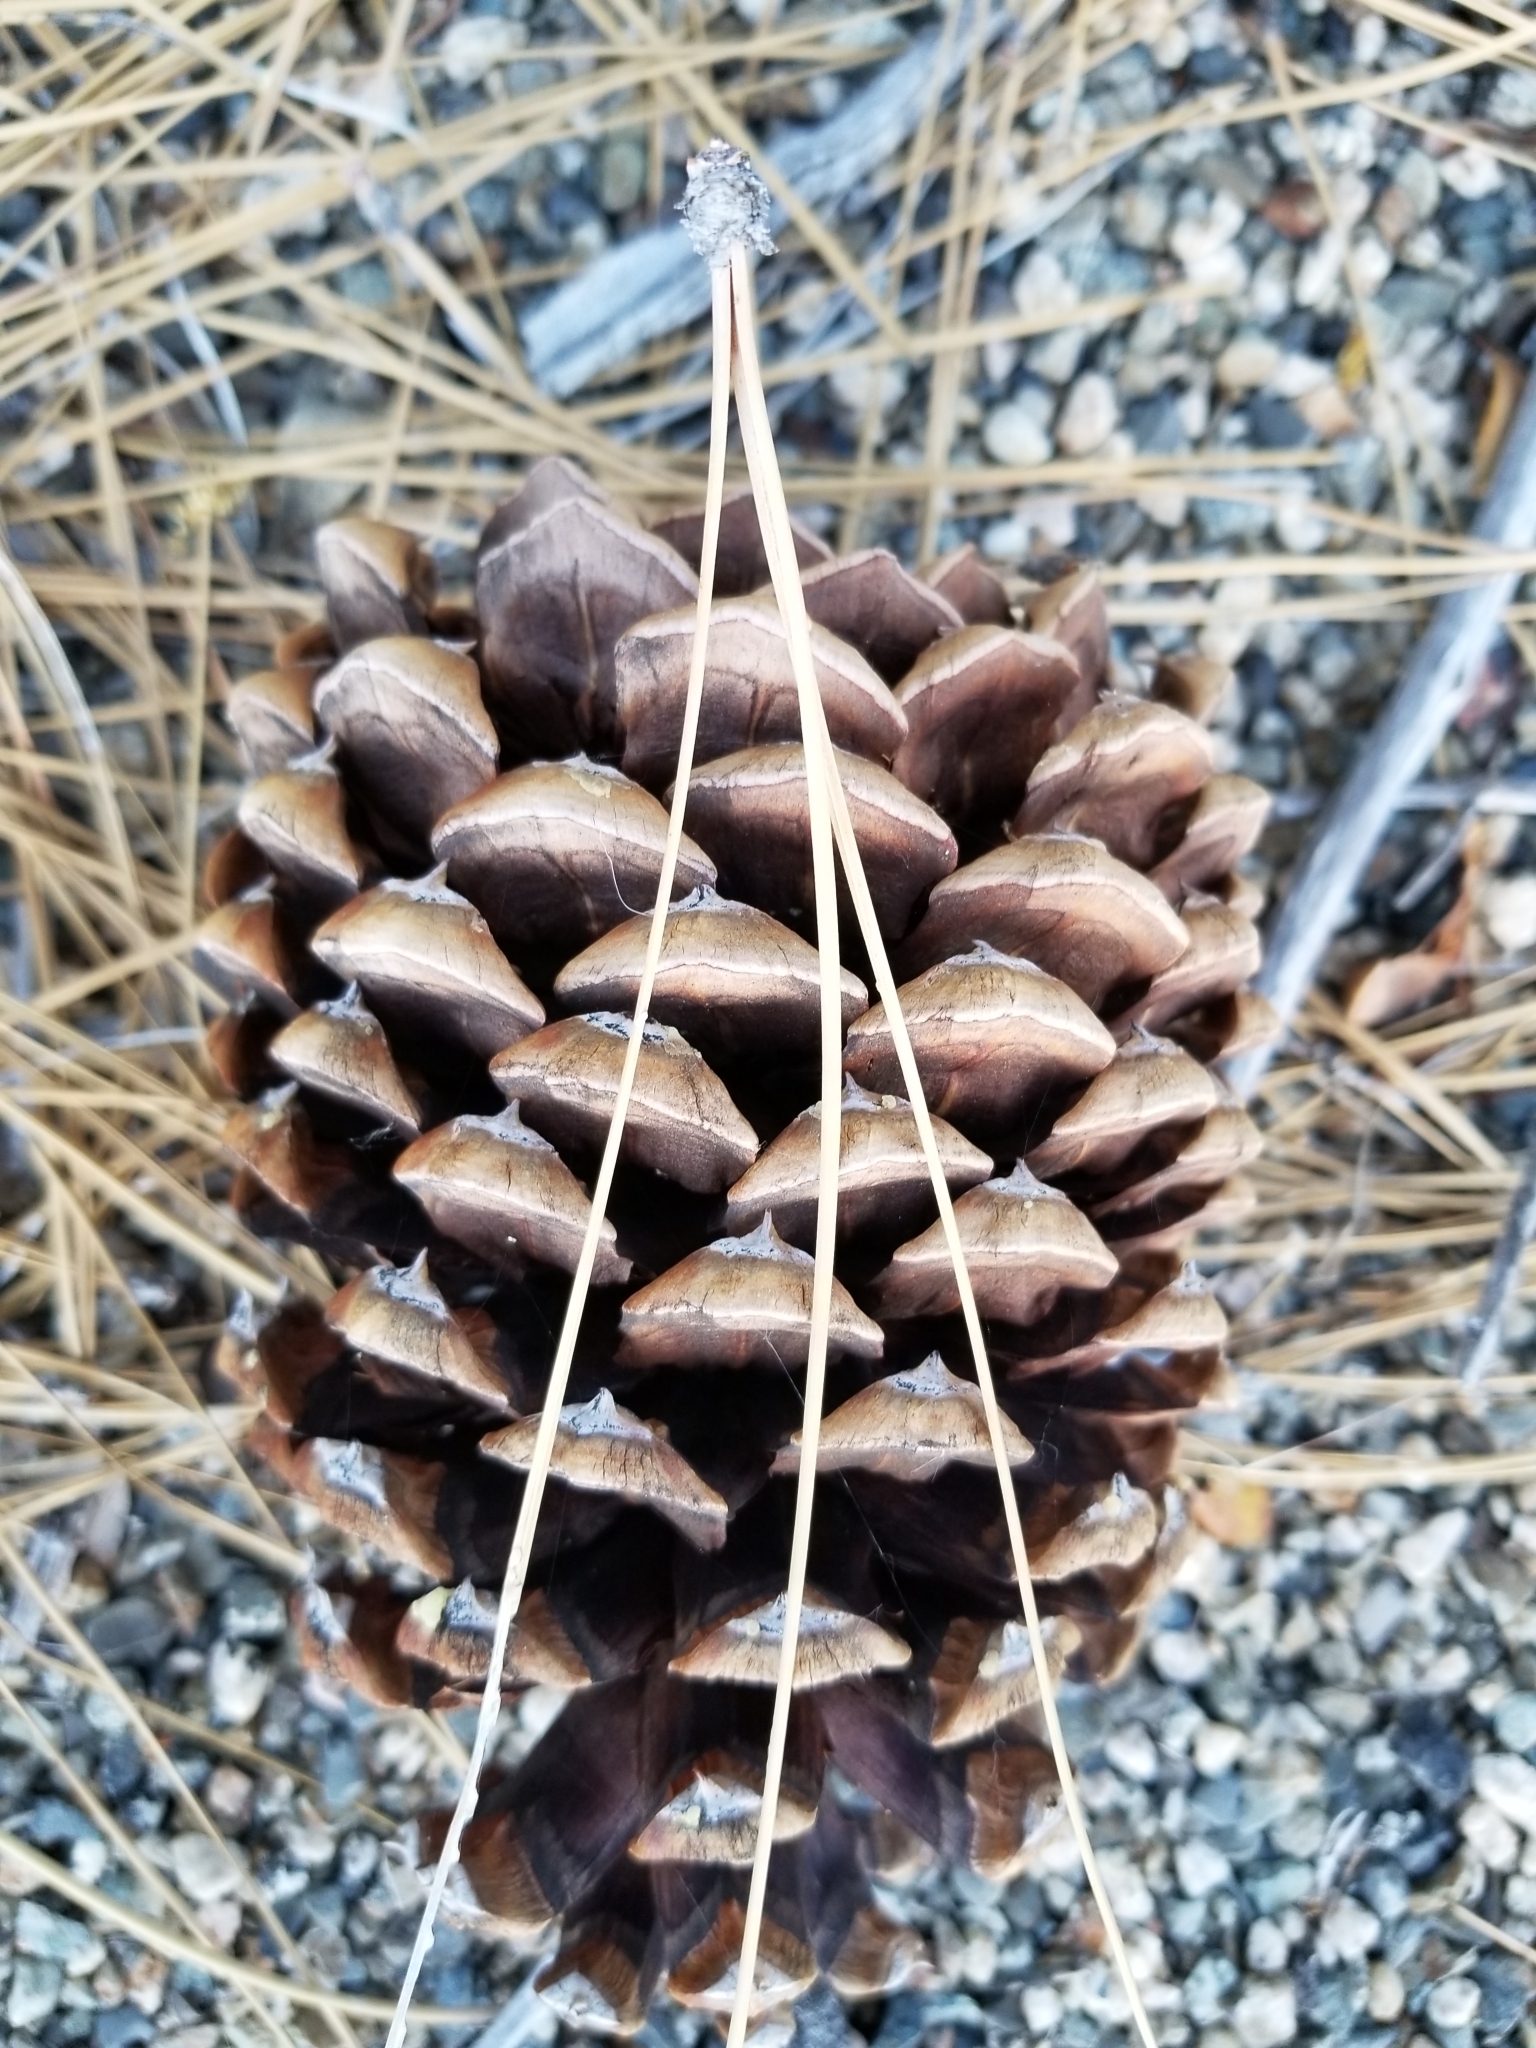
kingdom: Plantae
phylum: Tracheophyta
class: Pinopsida
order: Pinales
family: Pinaceae
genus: Pinus
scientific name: Pinus jeffreyi
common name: Jeffrey pine
